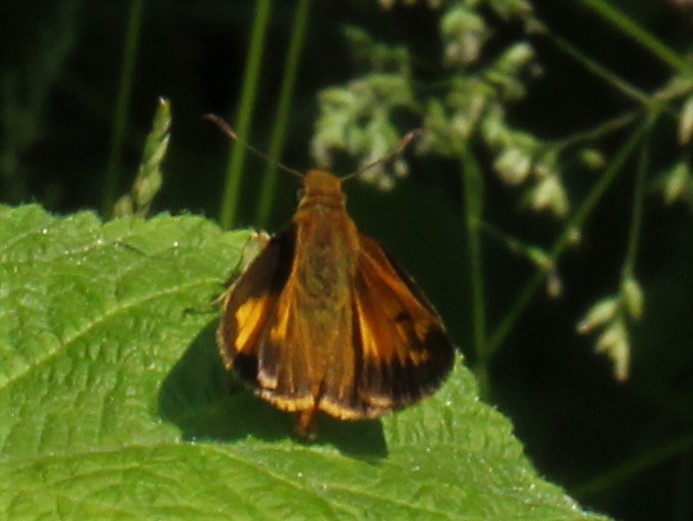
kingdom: Animalia
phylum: Arthropoda
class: Insecta
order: Lepidoptera
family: Hesperiidae
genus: Lon
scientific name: Lon hobomok
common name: Hobomok skipper
